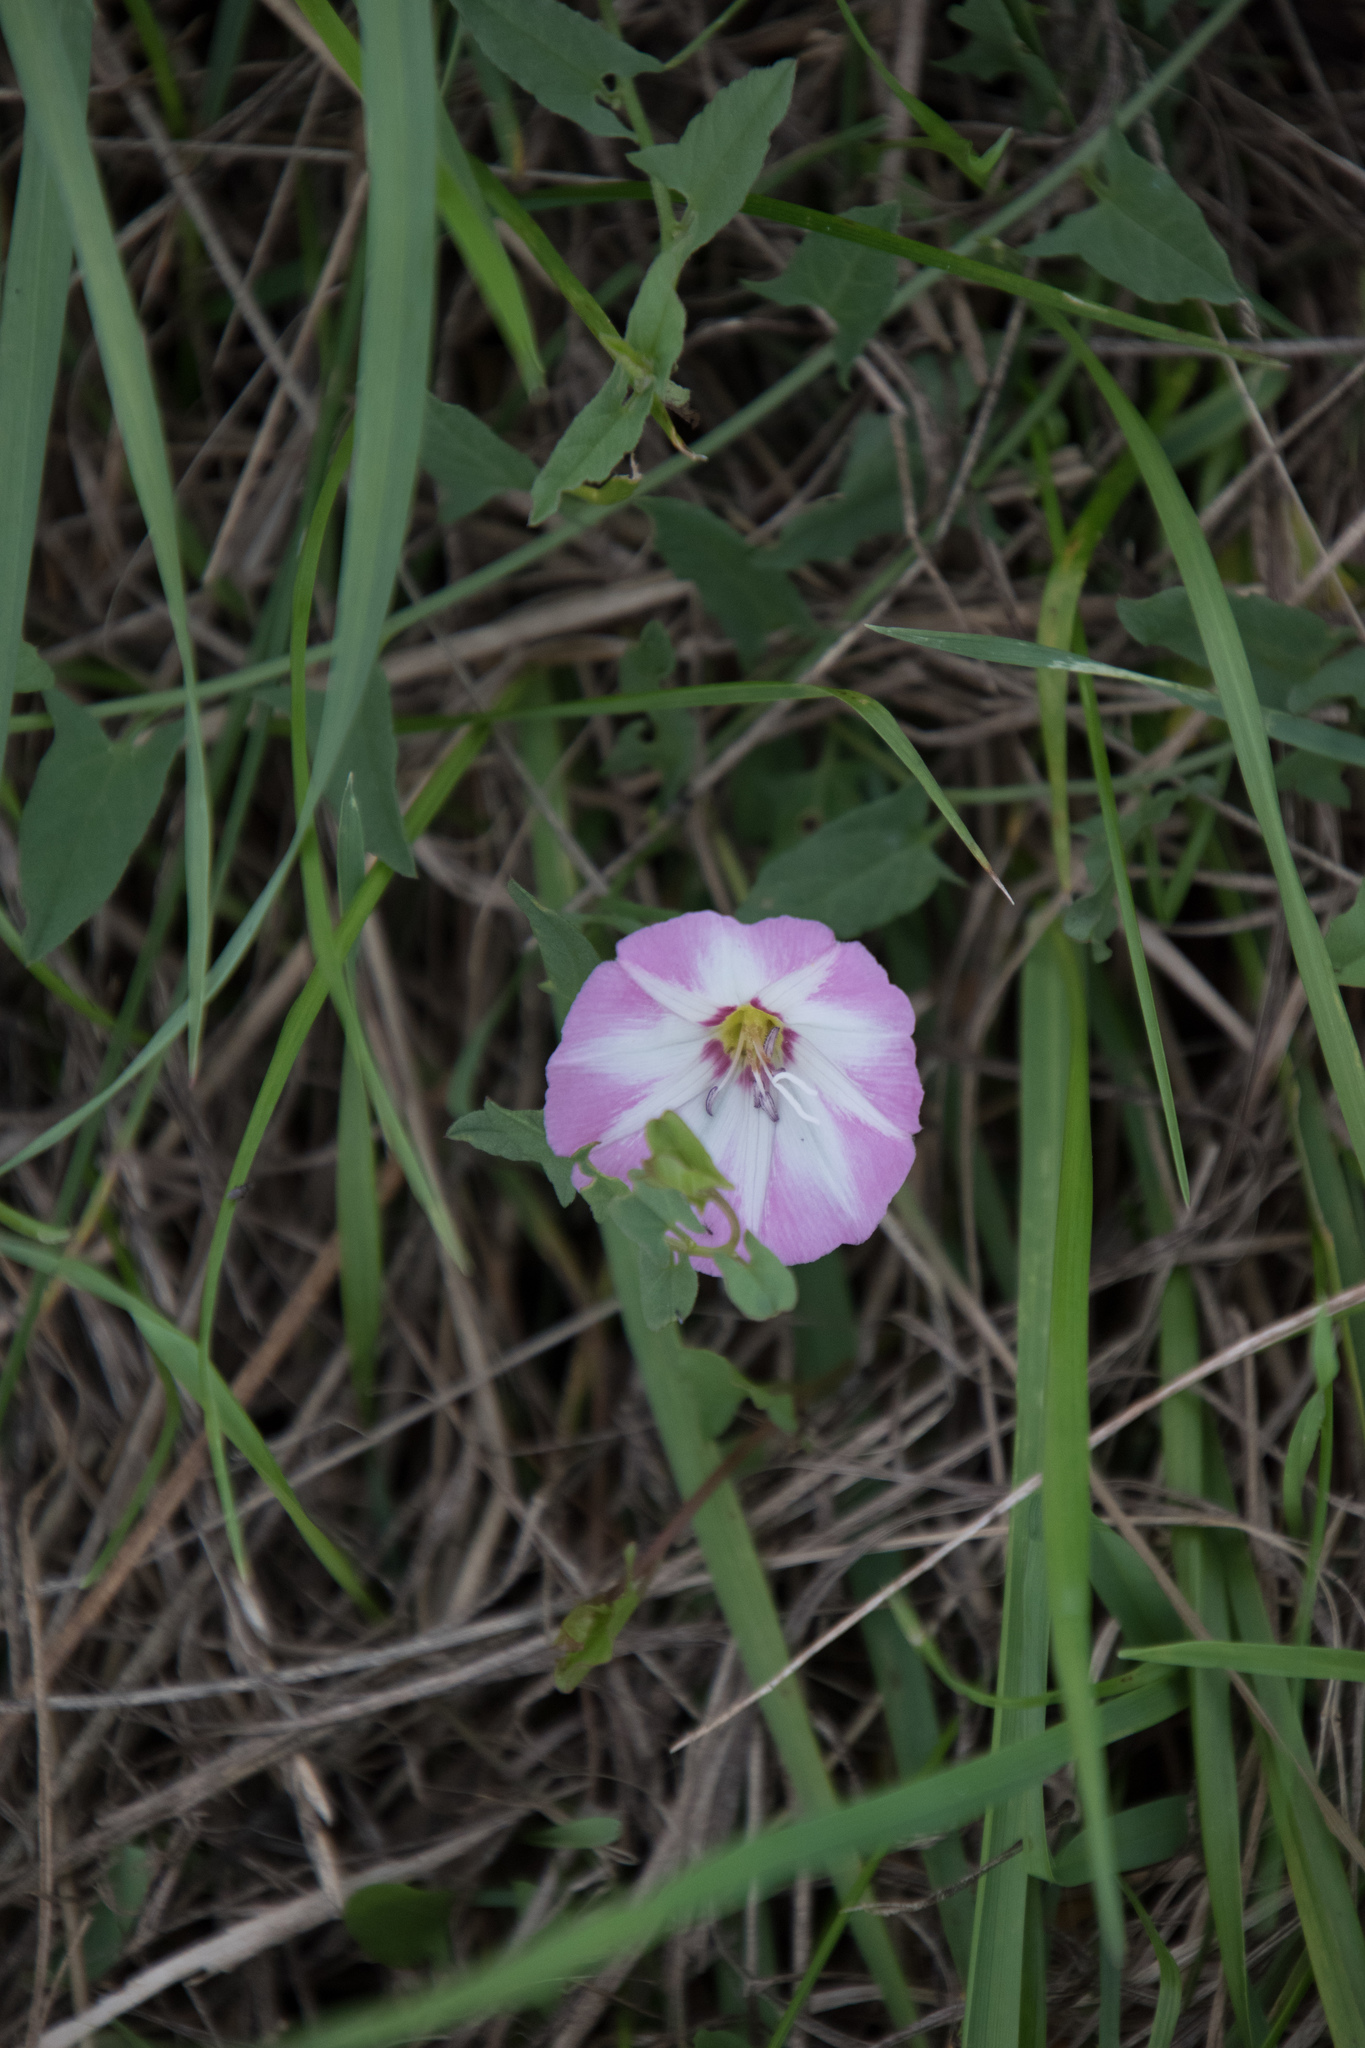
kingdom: Plantae
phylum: Tracheophyta
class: Magnoliopsida
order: Solanales
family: Convolvulaceae
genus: Convolvulus
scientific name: Convolvulus arvensis
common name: Field bindweed
